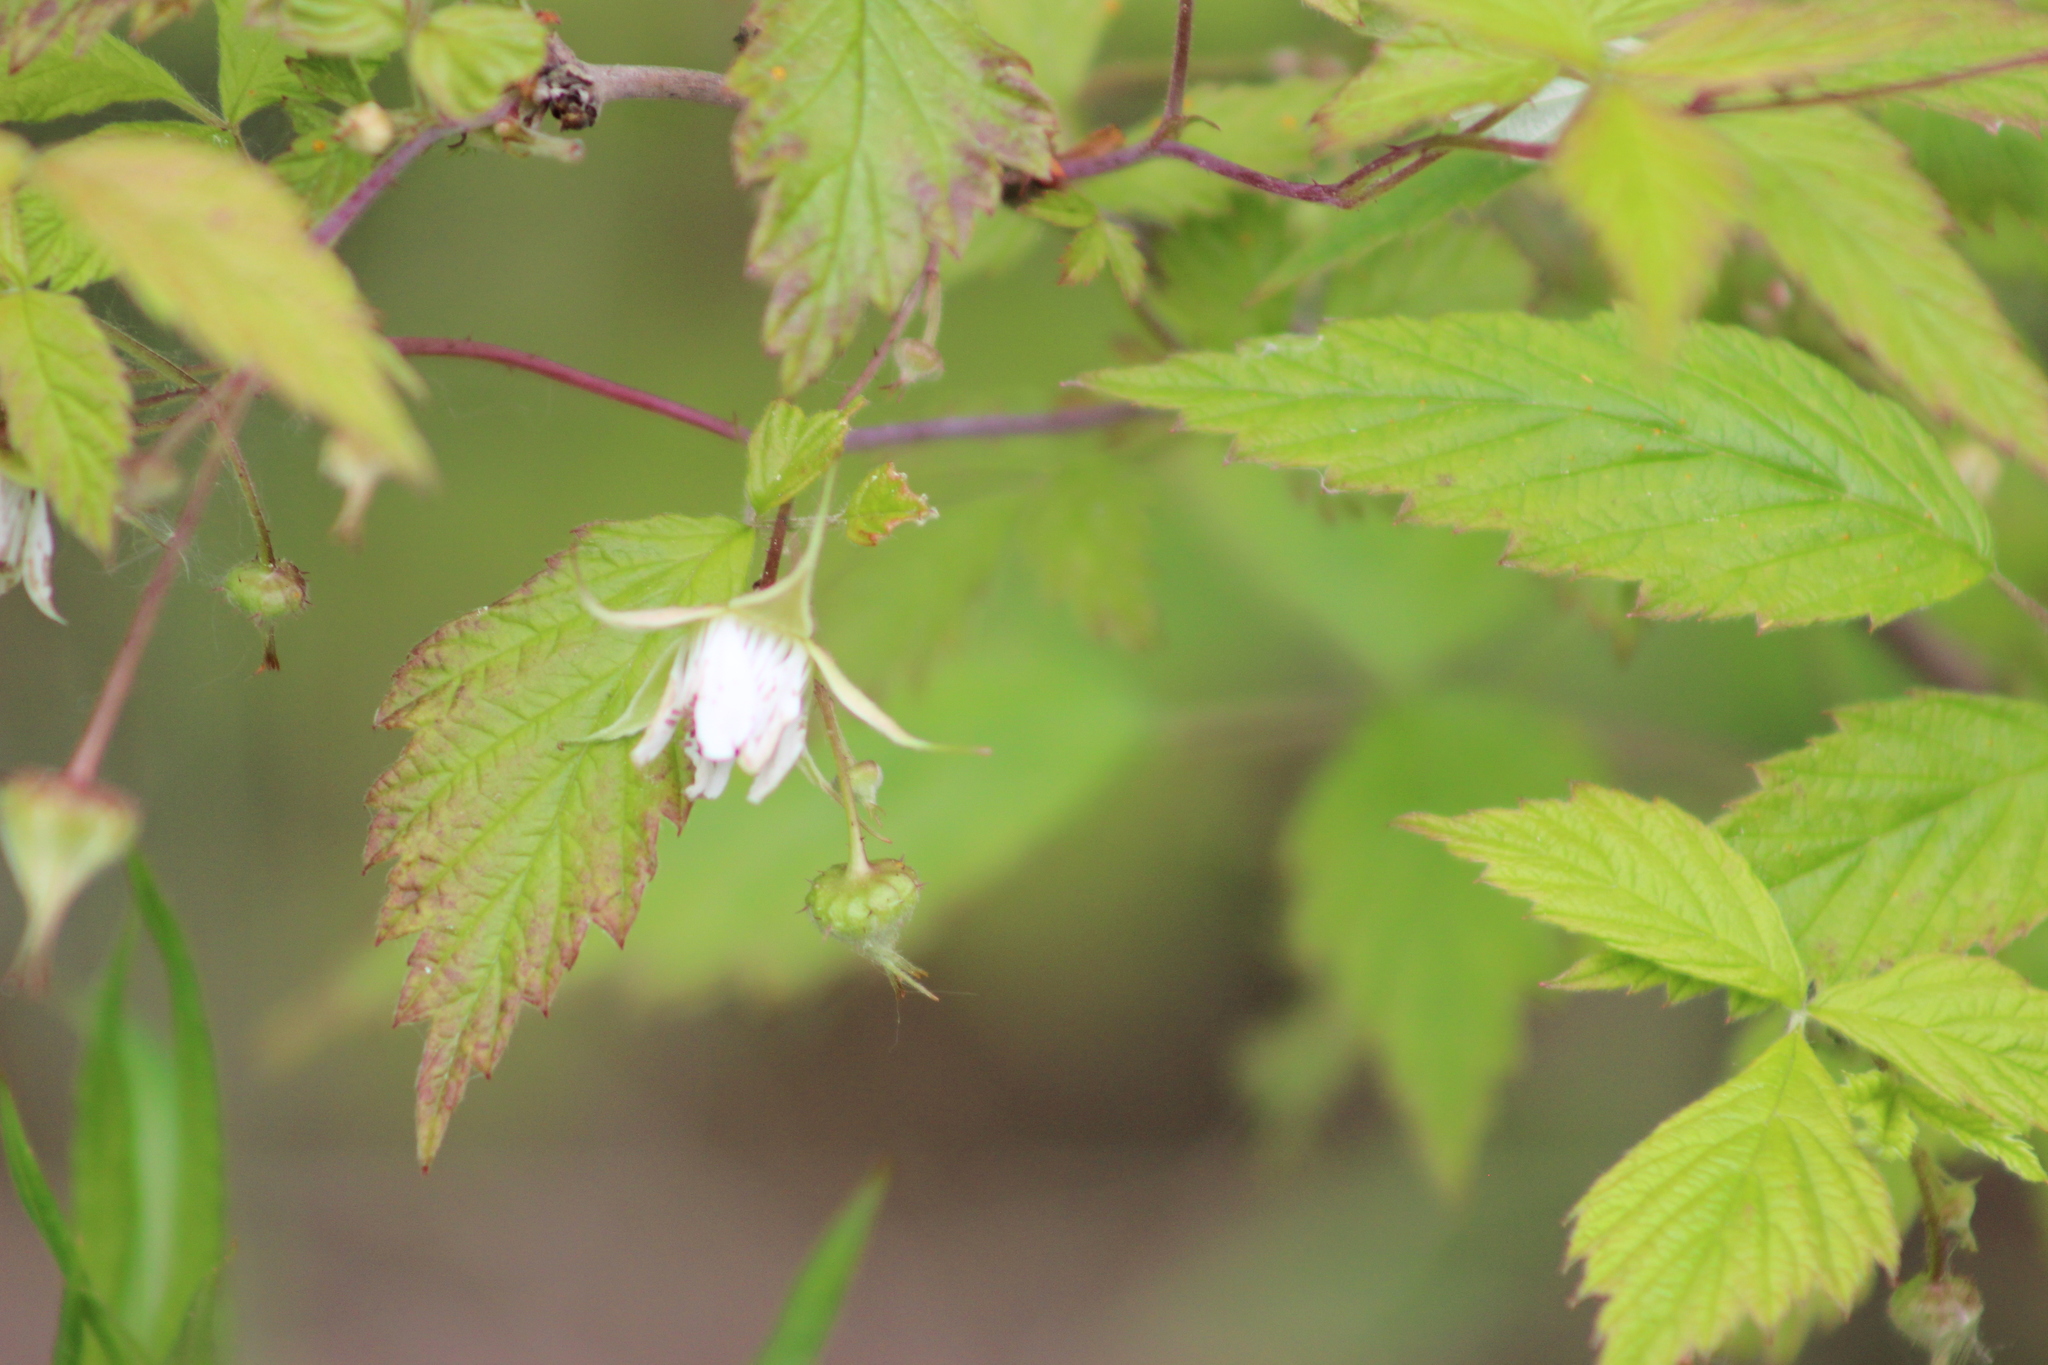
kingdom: Plantae
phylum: Tracheophyta
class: Magnoliopsida
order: Rosales
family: Rosaceae
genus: Rubus
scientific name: Rubus idaeus
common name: Raspberry
